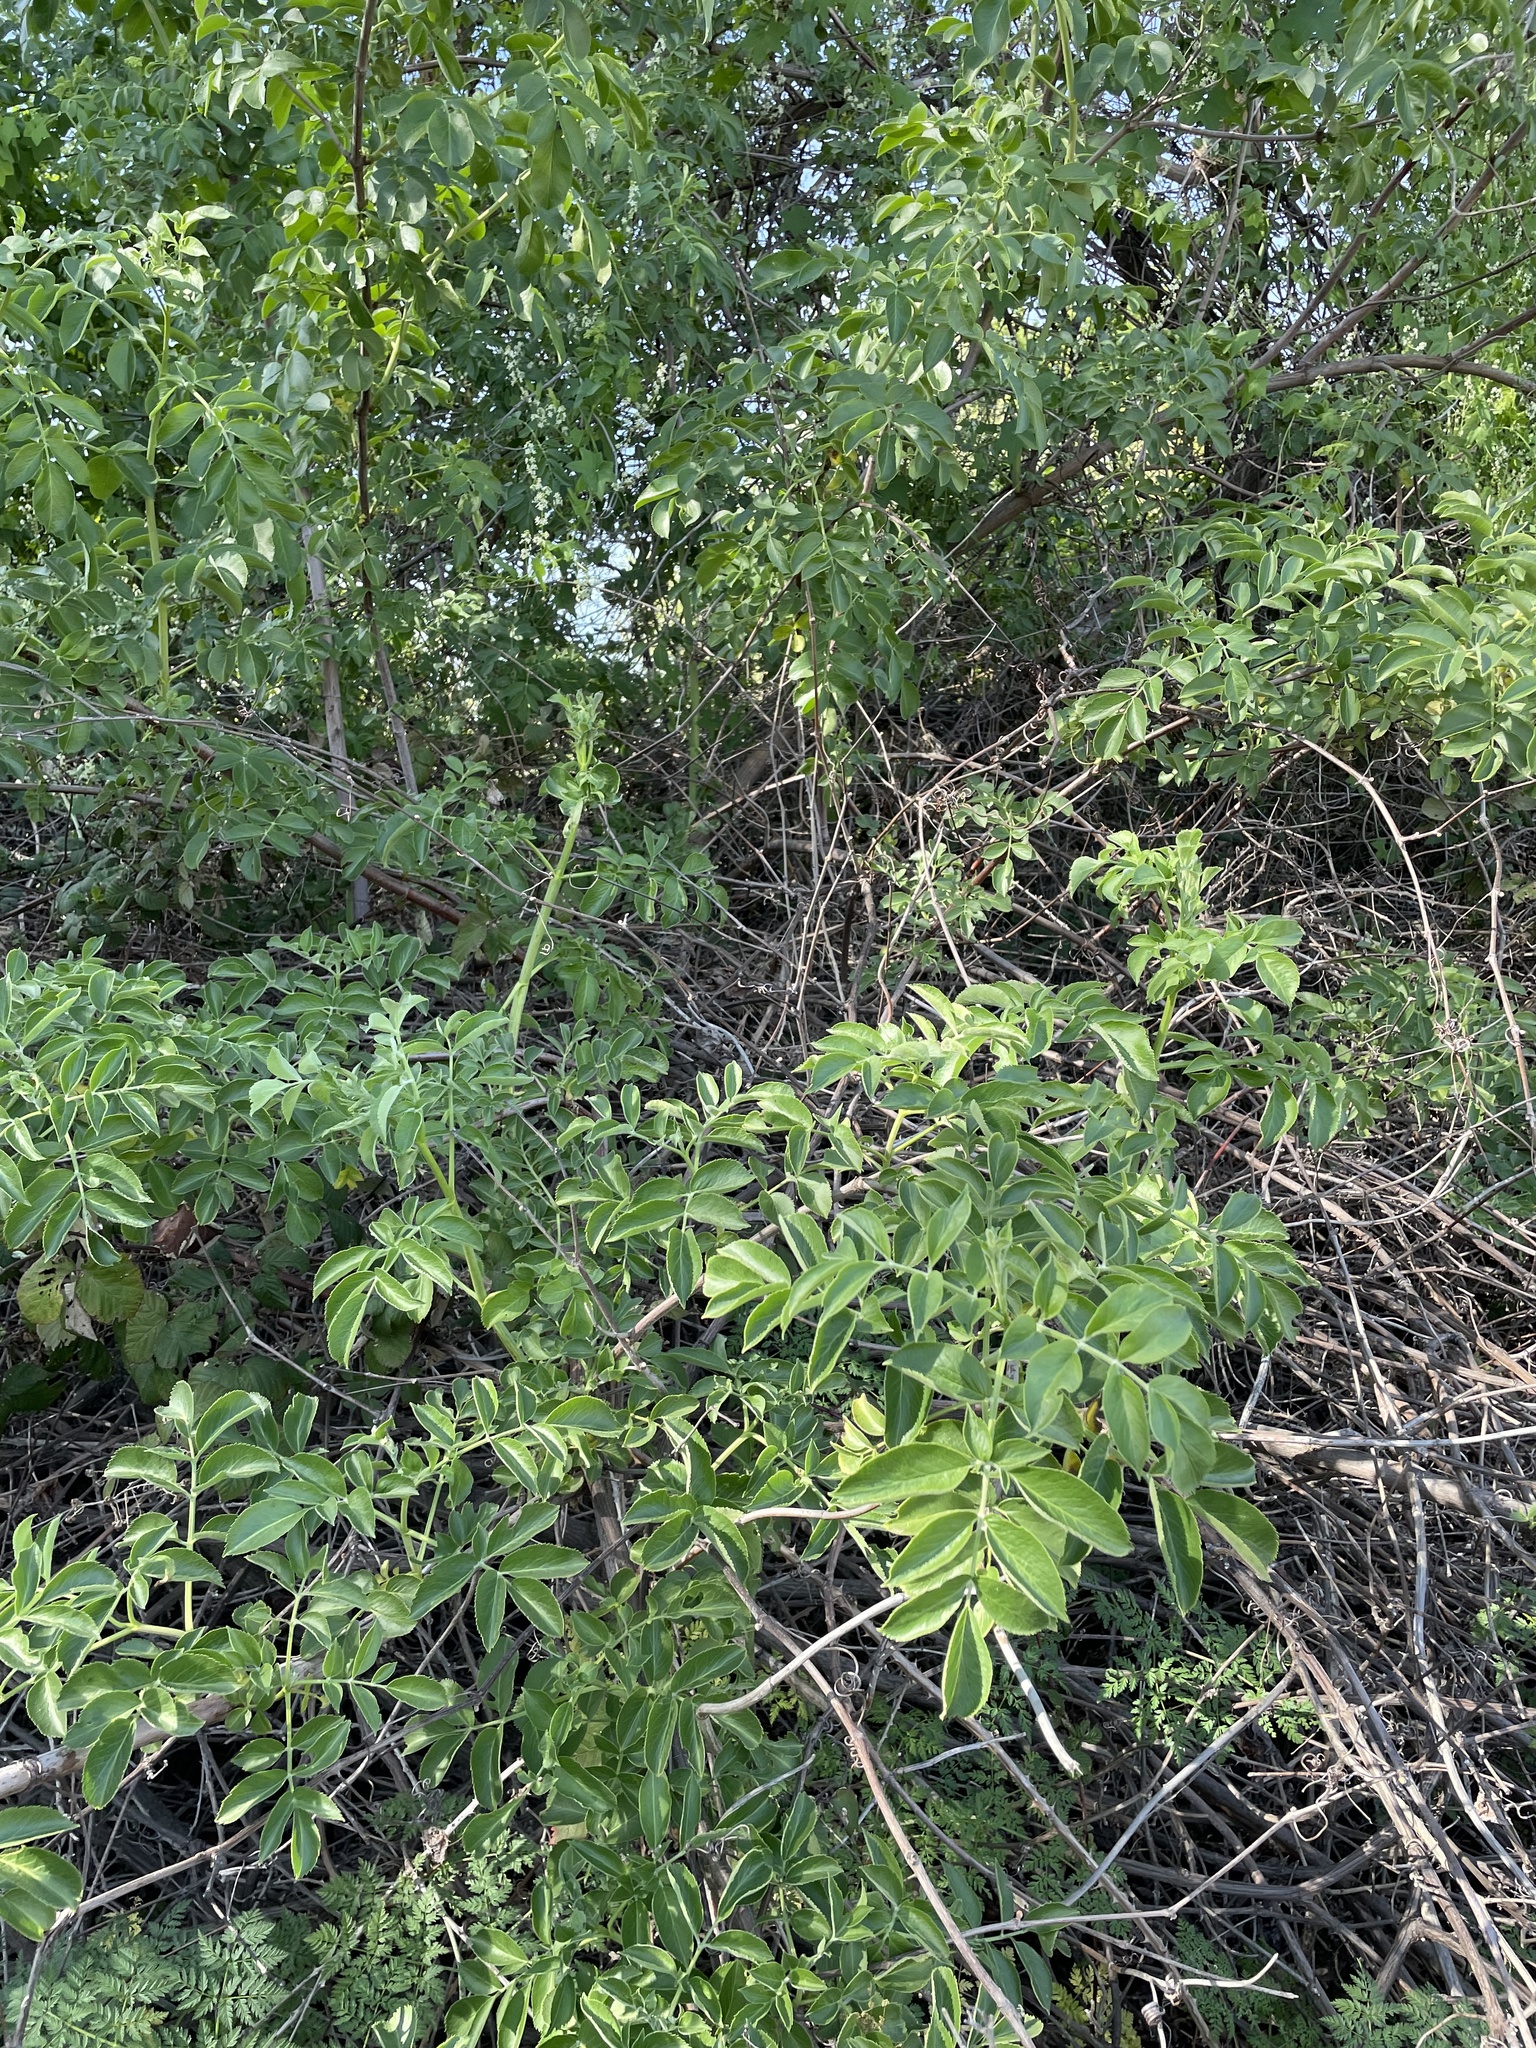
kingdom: Plantae
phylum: Tracheophyta
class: Magnoliopsida
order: Dipsacales
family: Viburnaceae
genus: Sambucus
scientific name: Sambucus cerulea
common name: Blue elder
